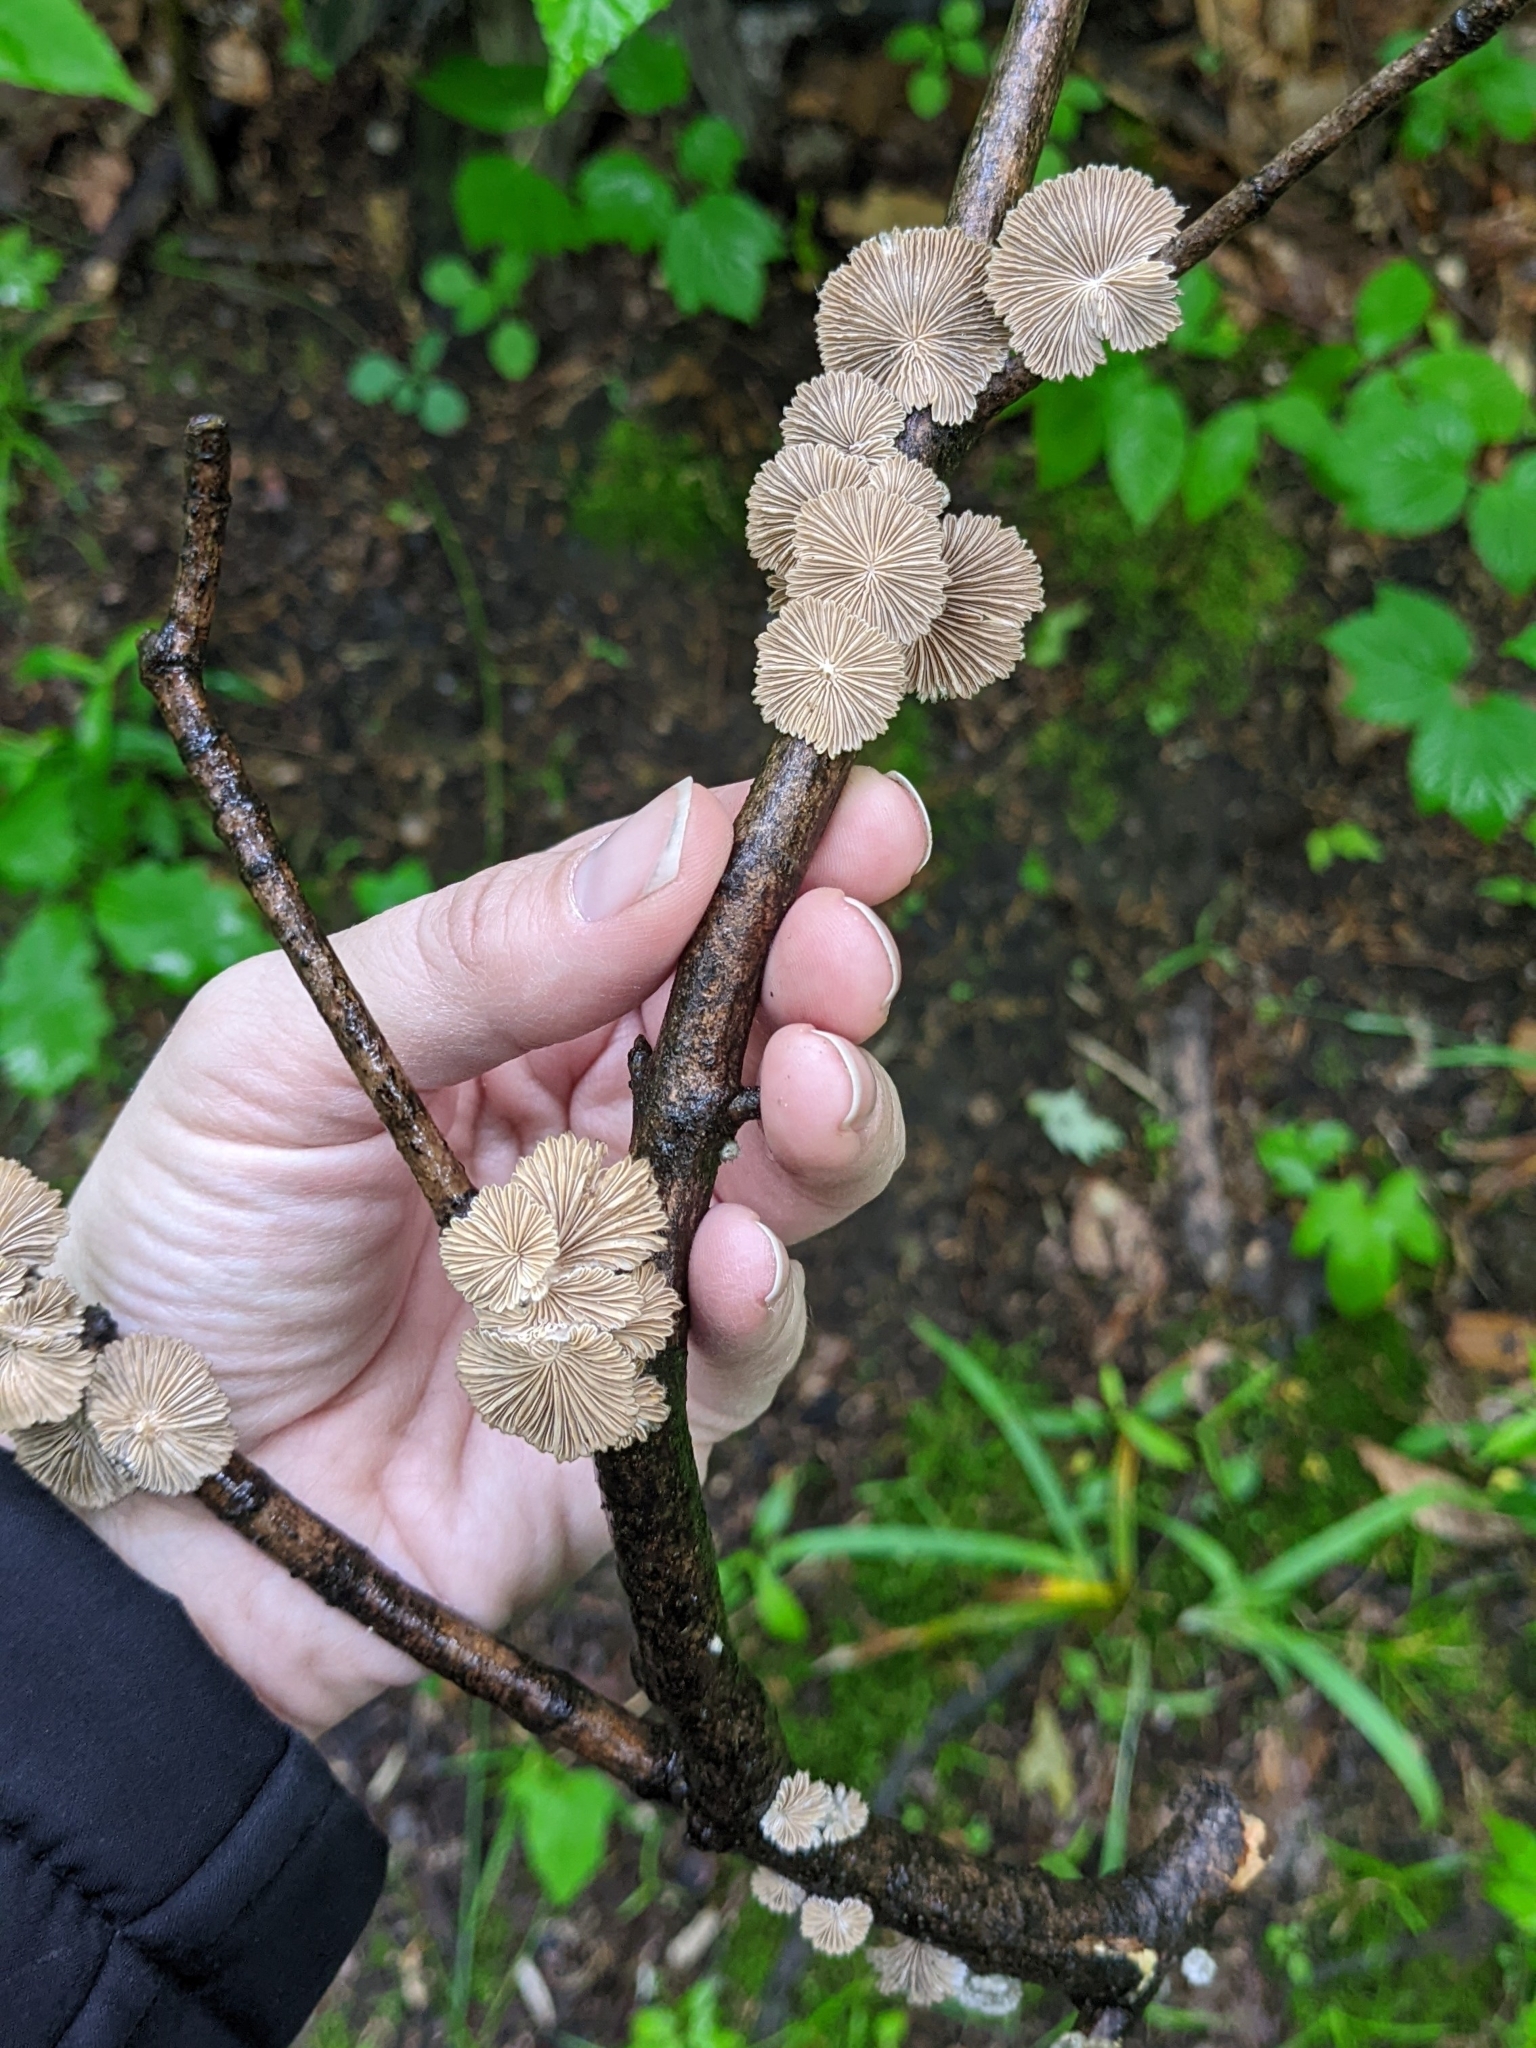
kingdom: Fungi
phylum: Basidiomycota
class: Agaricomycetes
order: Agaricales
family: Schizophyllaceae
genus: Schizophyllum
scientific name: Schizophyllum commune
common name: Common porecrust
